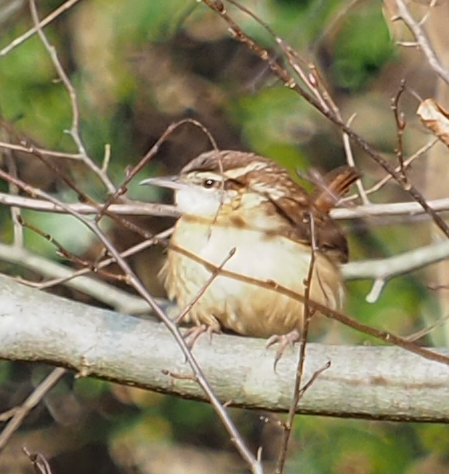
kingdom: Animalia
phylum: Chordata
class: Aves
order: Passeriformes
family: Troglodytidae
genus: Thryothorus
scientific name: Thryothorus ludovicianus
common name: Carolina wren
